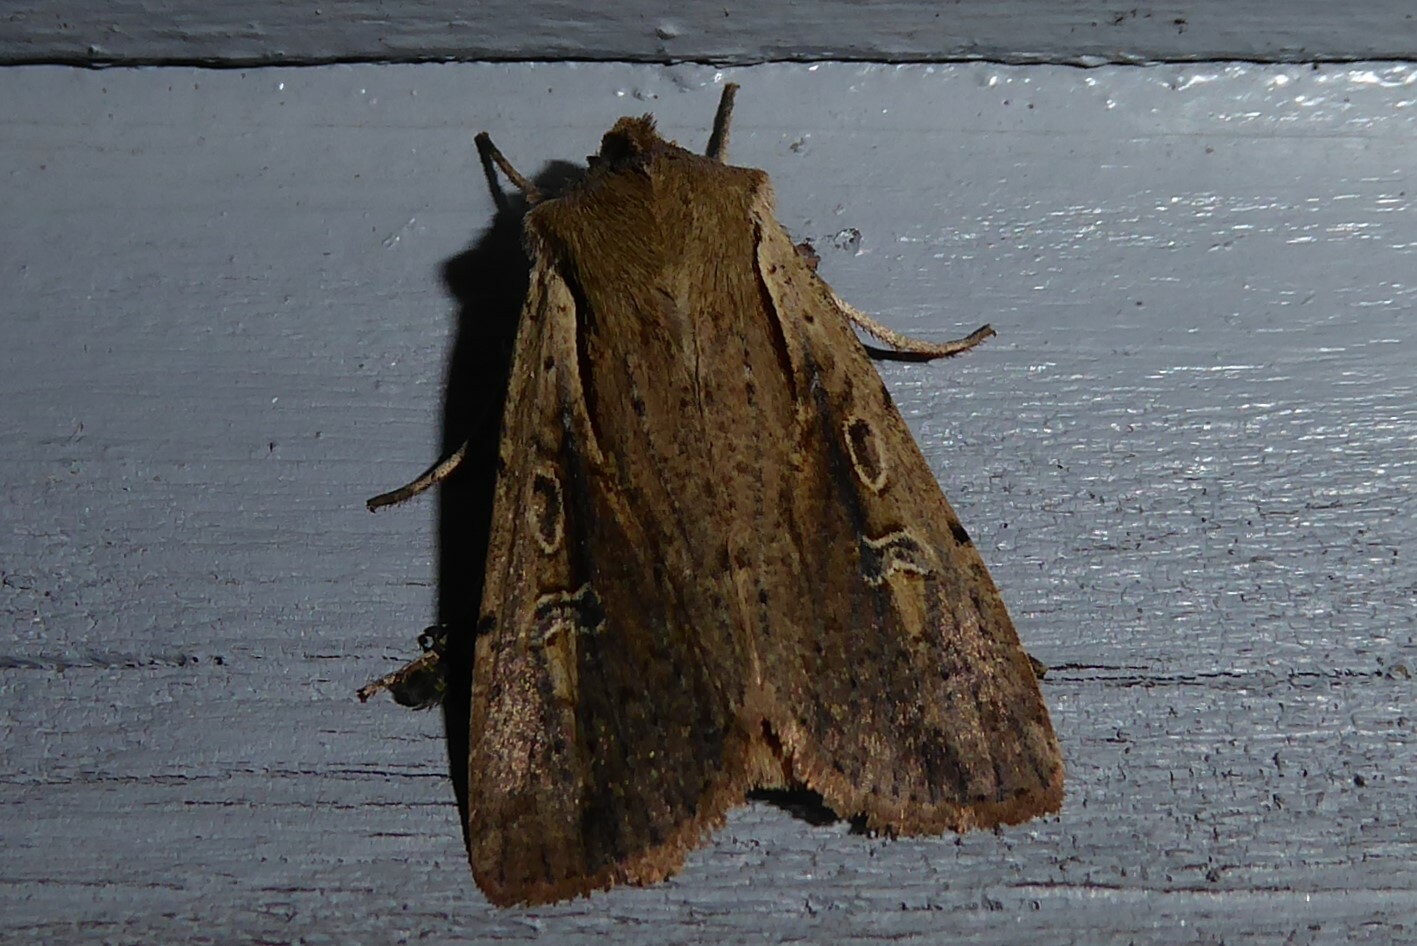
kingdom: Animalia
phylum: Arthropoda
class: Insecta
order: Lepidoptera
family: Noctuidae
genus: Ichneutica
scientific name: Ichneutica atristriga
